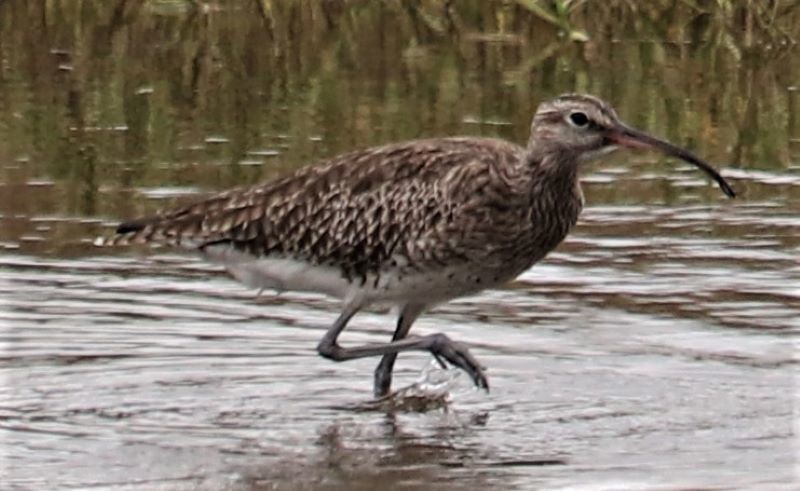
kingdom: Animalia
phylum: Chordata
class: Aves
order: Charadriiformes
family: Scolopacidae
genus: Numenius
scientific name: Numenius phaeopus
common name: Whimbrel
